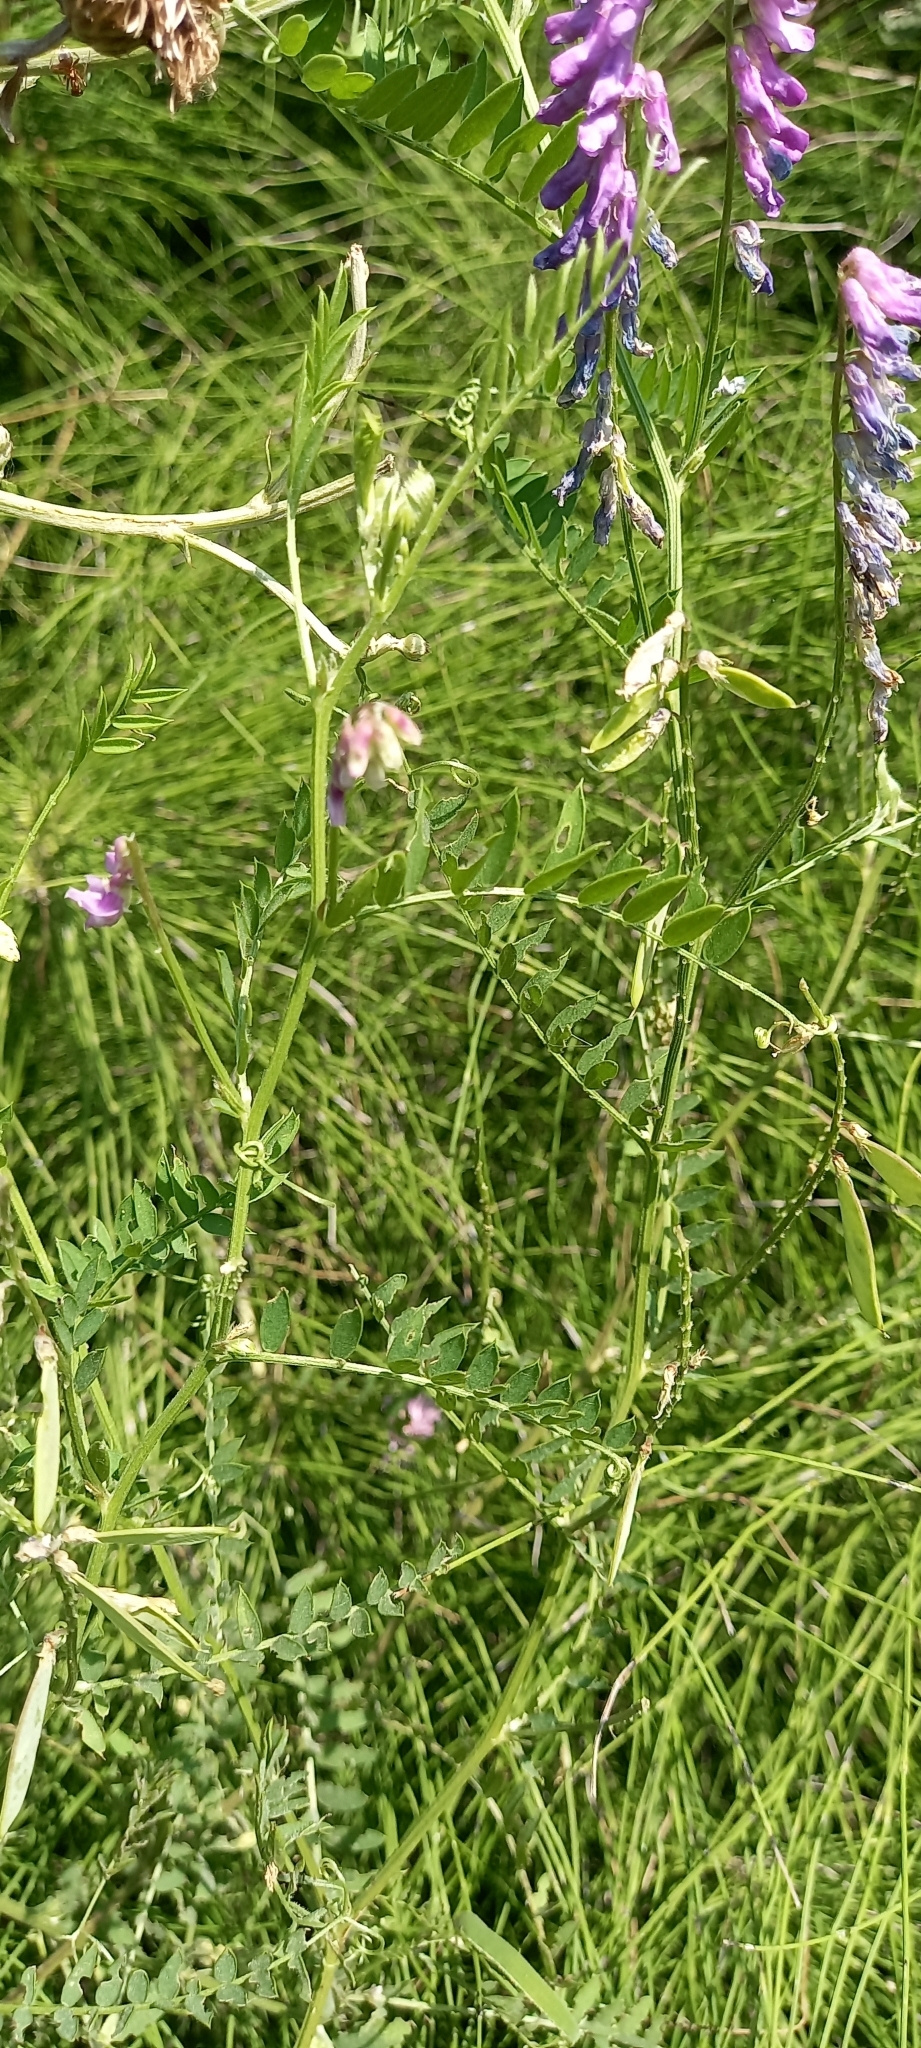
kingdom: Plantae
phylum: Tracheophyta
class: Magnoliopsida
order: Fabales
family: Fabaceae
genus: Vicia
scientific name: Vicia cracca
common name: Bird vetch
